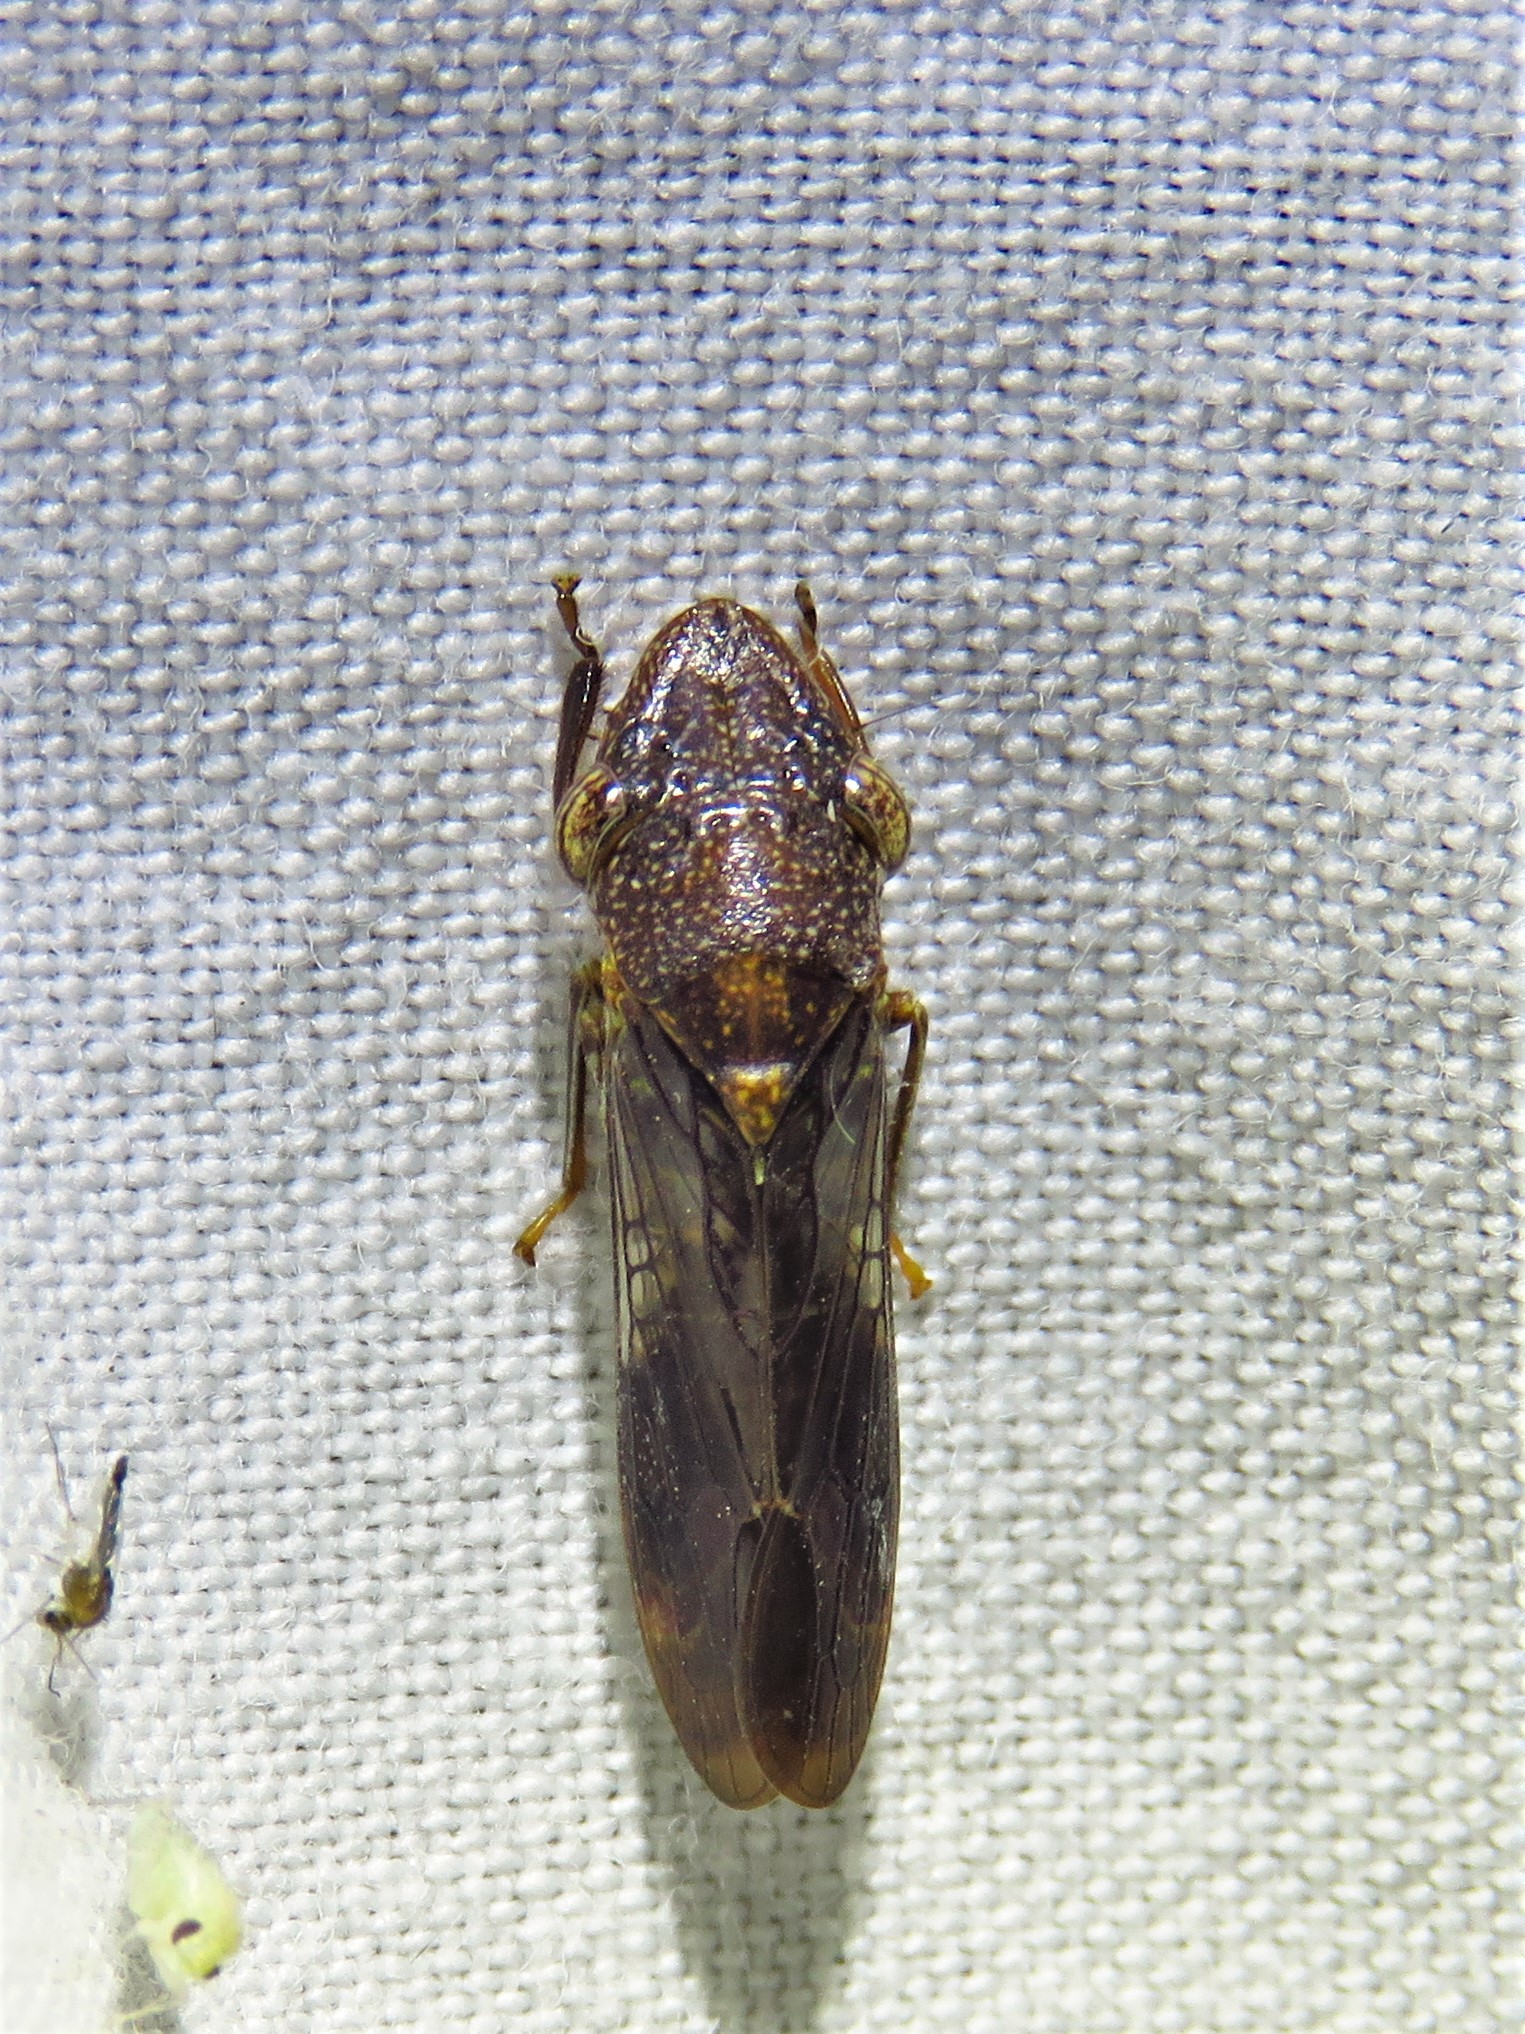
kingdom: Animalia
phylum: Arthropoda
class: Insecta
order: Hemiptera
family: Cicadellidae
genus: Homalodisca
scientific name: Homalodisca vitripennis
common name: Glassy-winged sharpshooter
